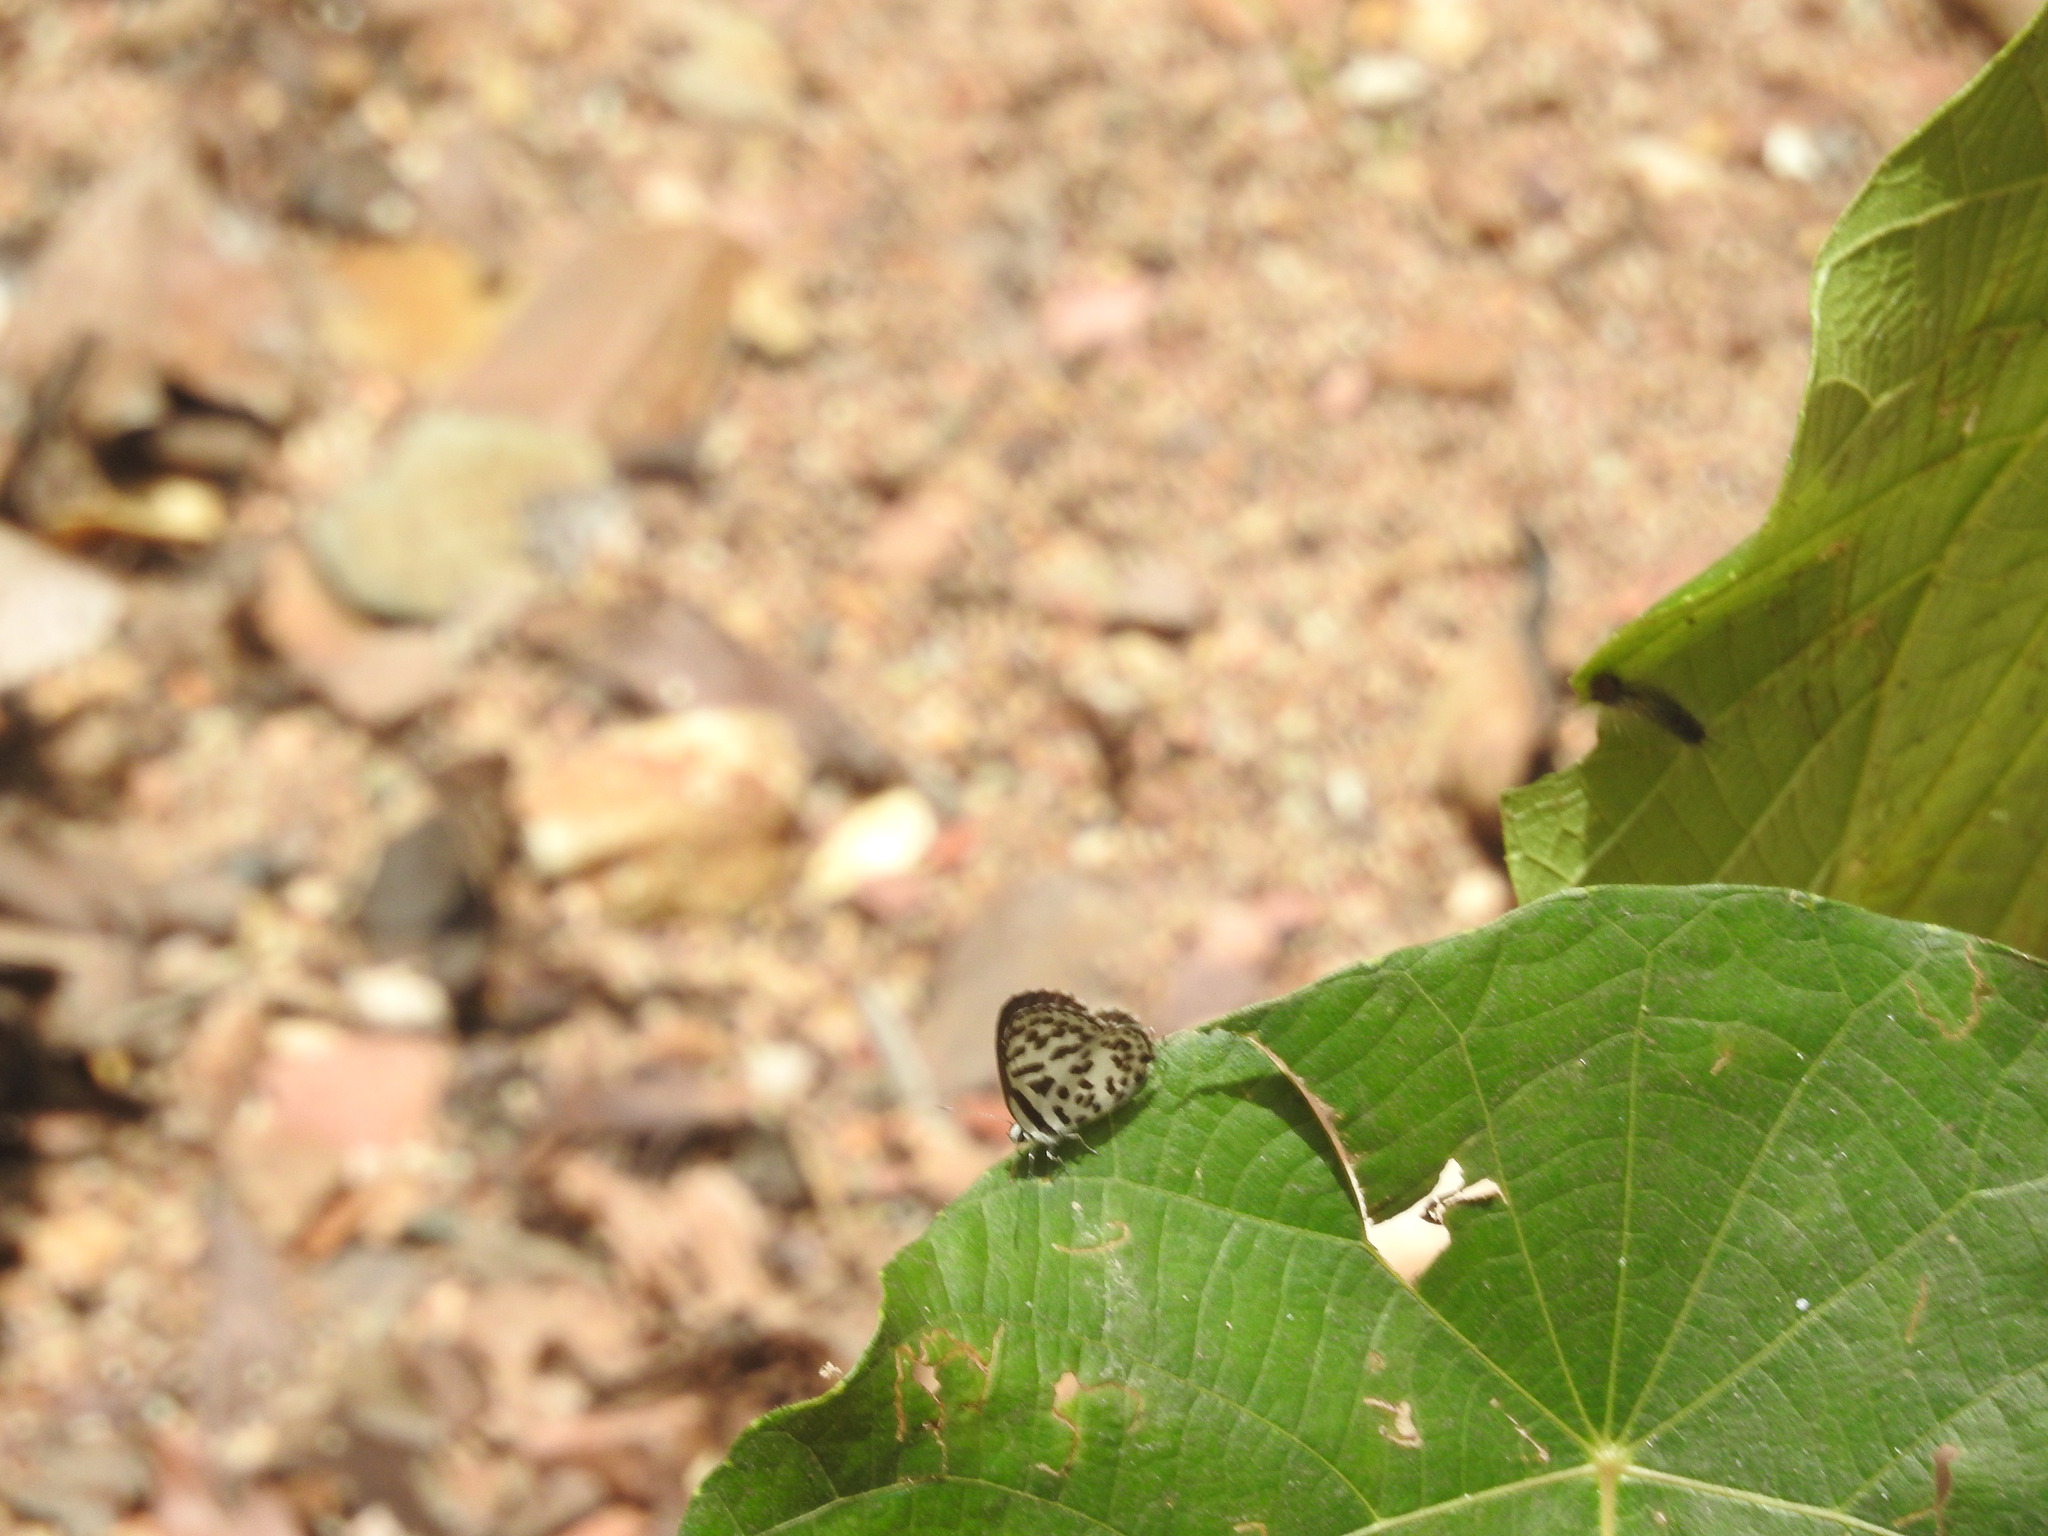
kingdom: Animalia
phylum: Arthropoda
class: Insecta
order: Lepidoptera
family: Lycaenidae
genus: Castalius
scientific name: Castalius rosimon
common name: Common pierrot
